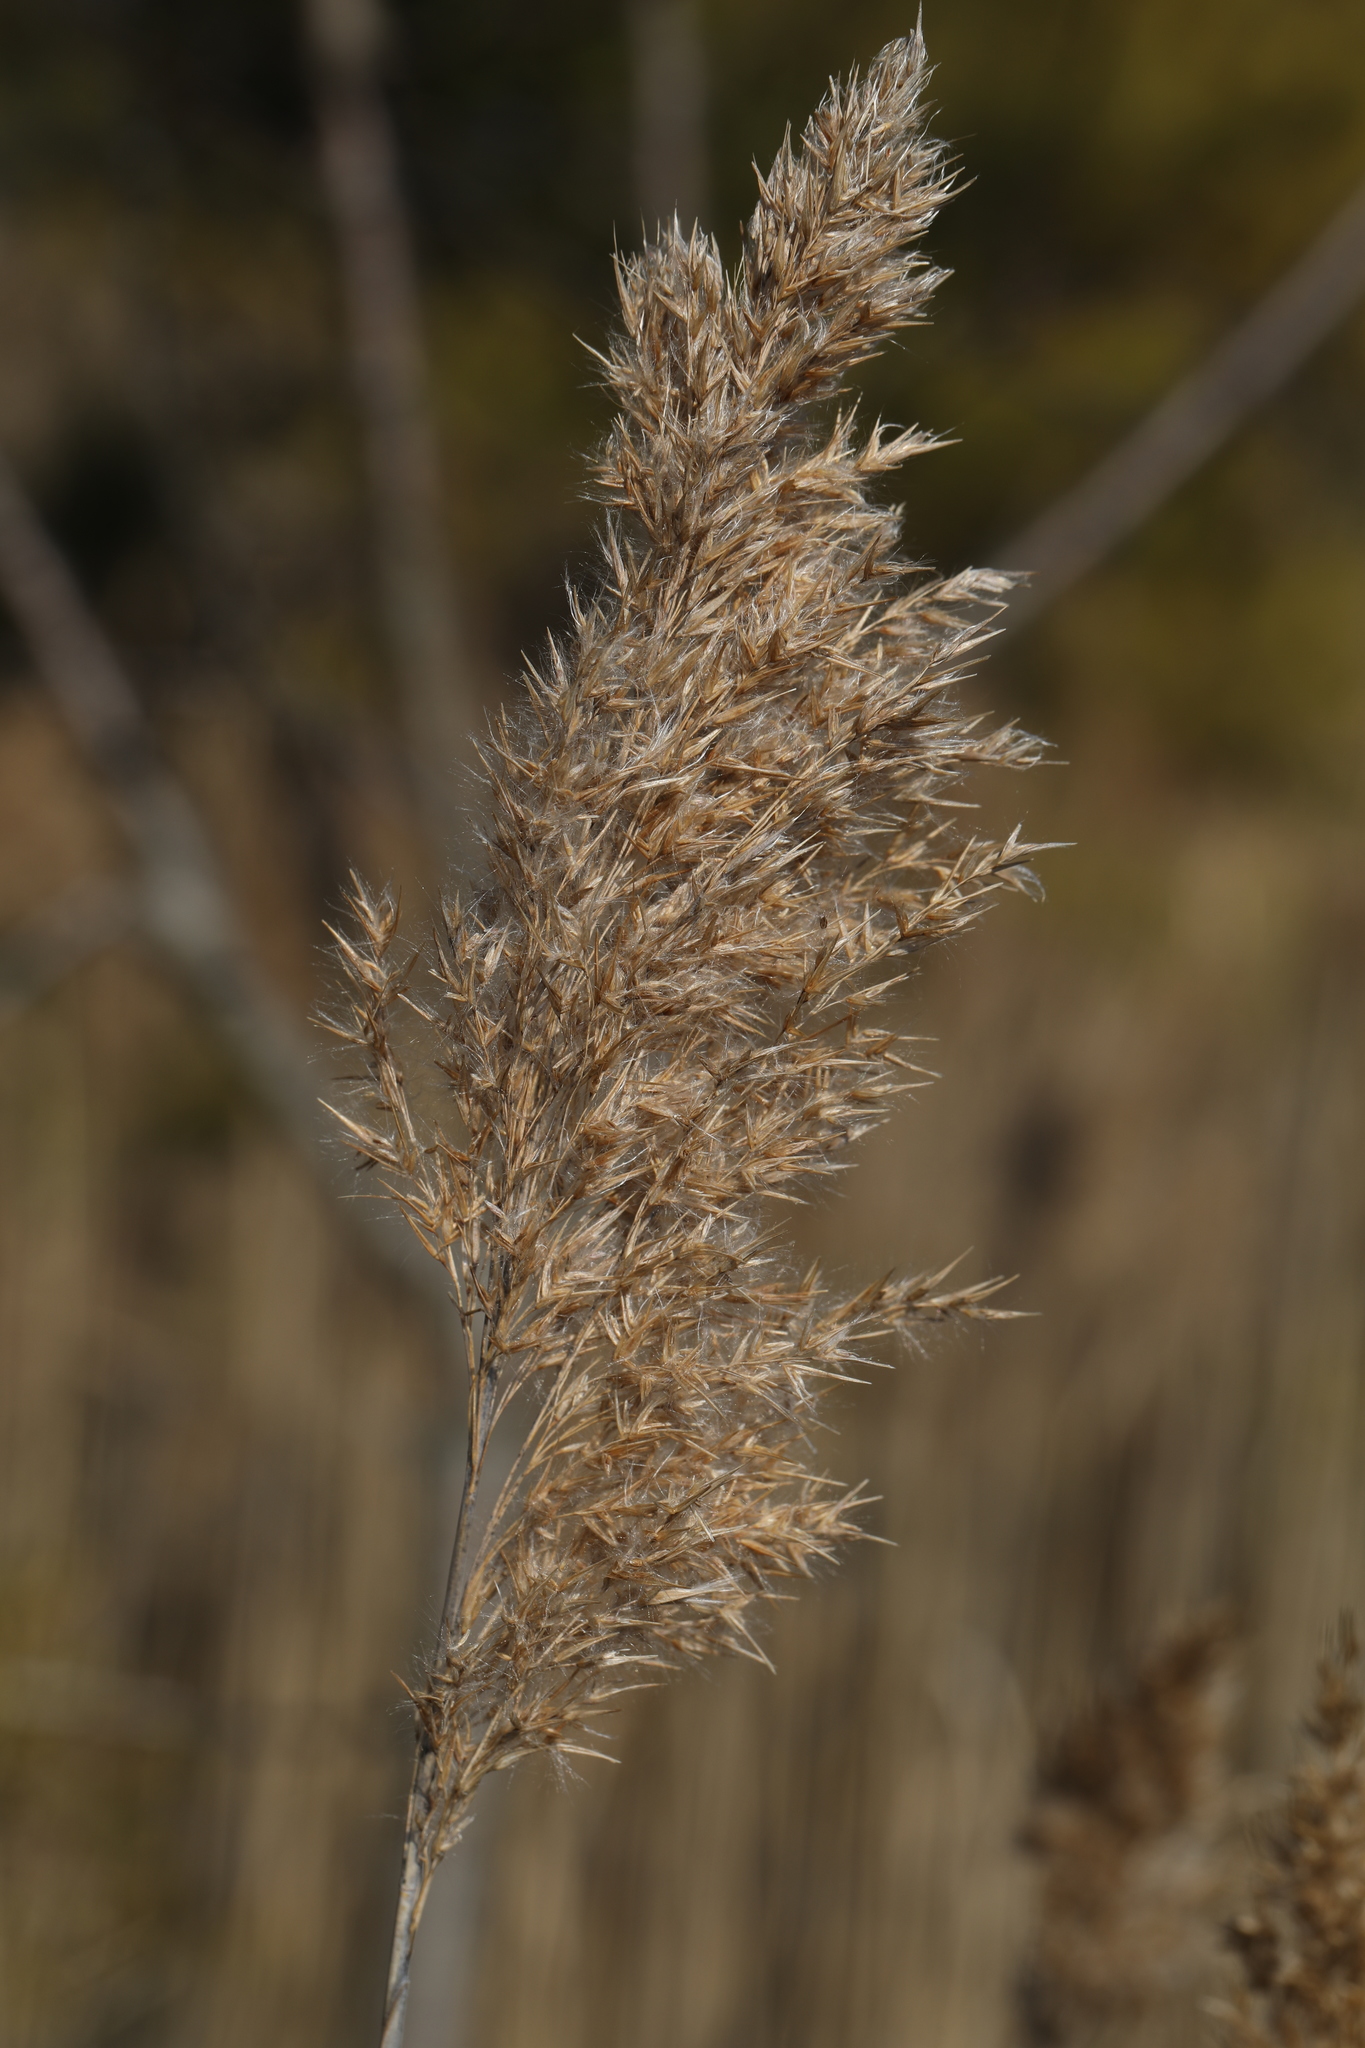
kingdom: Plantae
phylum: Tracheophyta
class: Liliopsida
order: Poales
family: Poaceae
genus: Phragmites
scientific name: Phragmites australis
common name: Common reed
